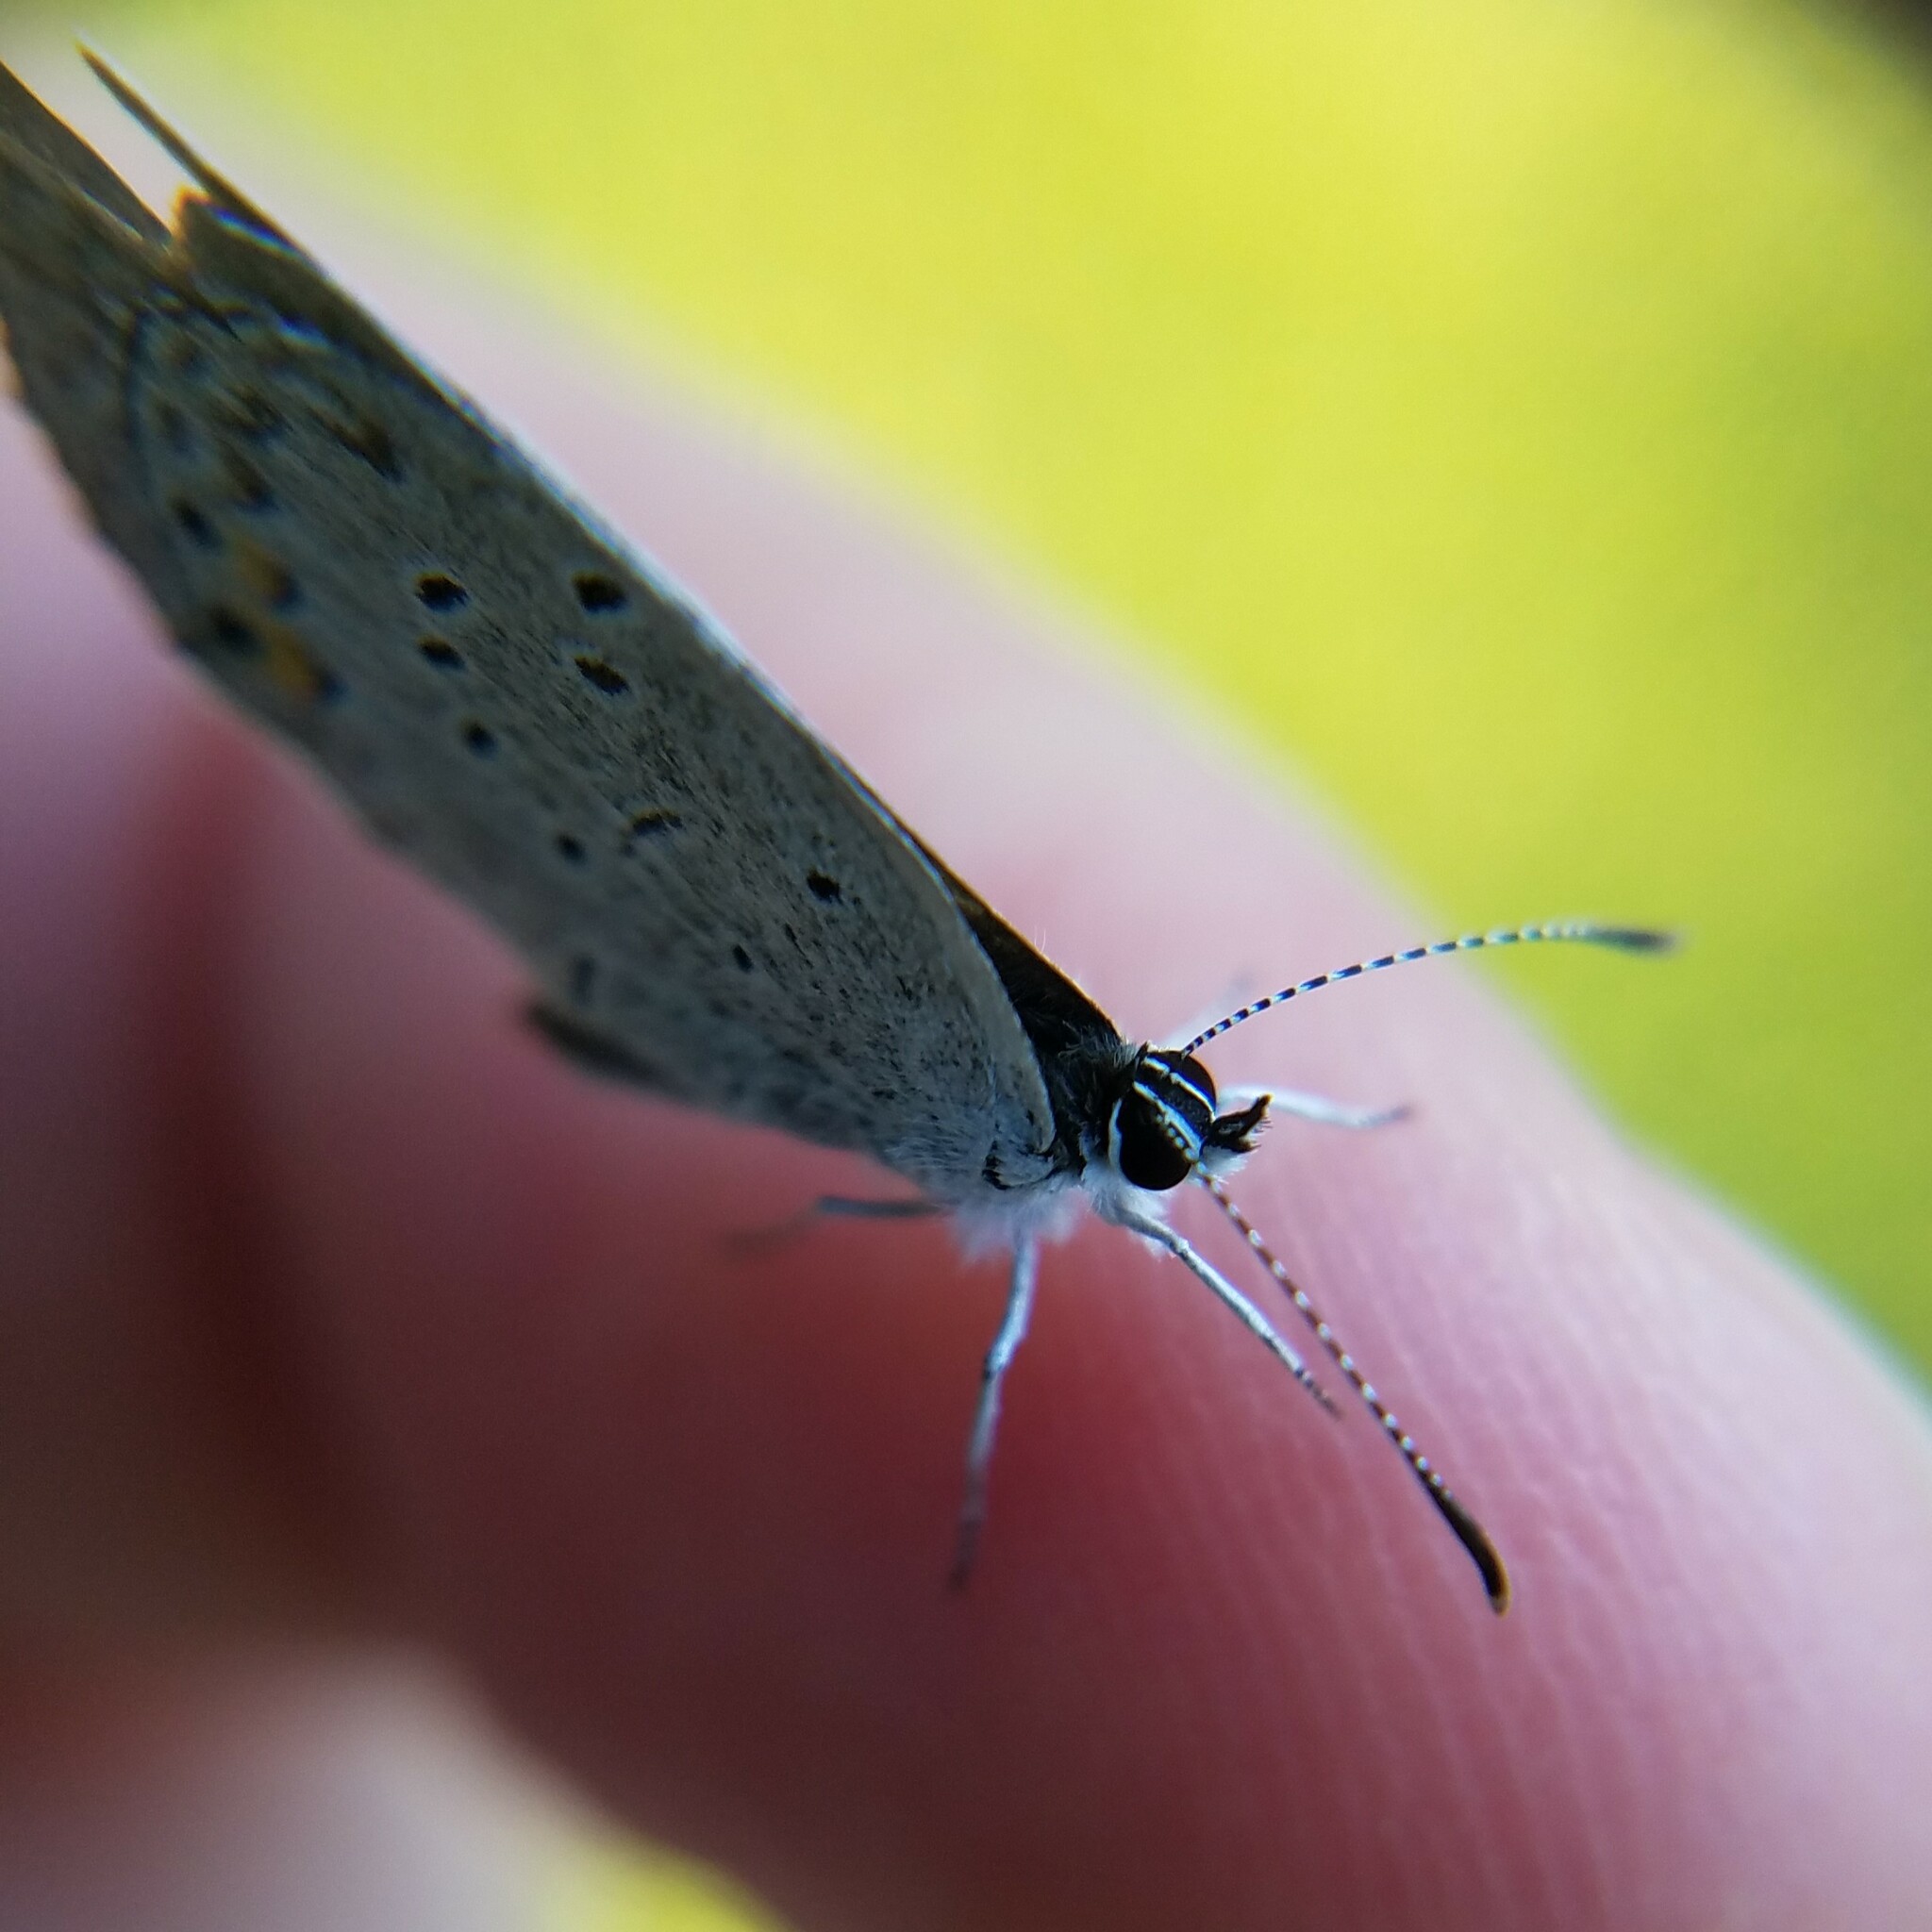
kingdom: Animalia
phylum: Arthropoda
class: Insecta
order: Lepidoptera
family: Lycaenidae
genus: Elkalyce
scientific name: Elkalyce comyntas
